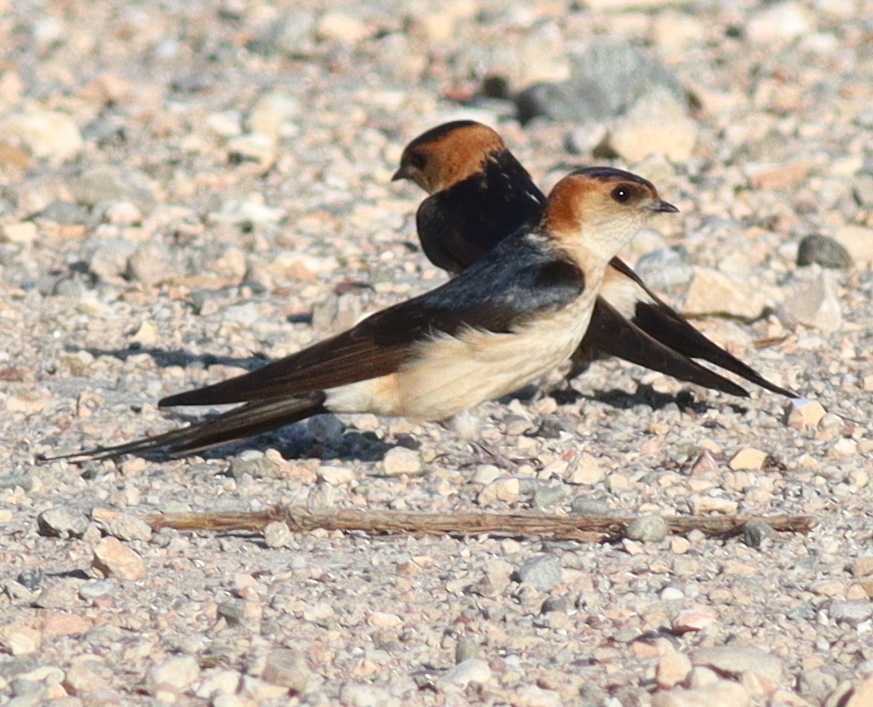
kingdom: Animalia
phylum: Chordata
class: Aves
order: Passeriformes
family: Hirundinidae
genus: Cecropis
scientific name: Cecropis daurica
